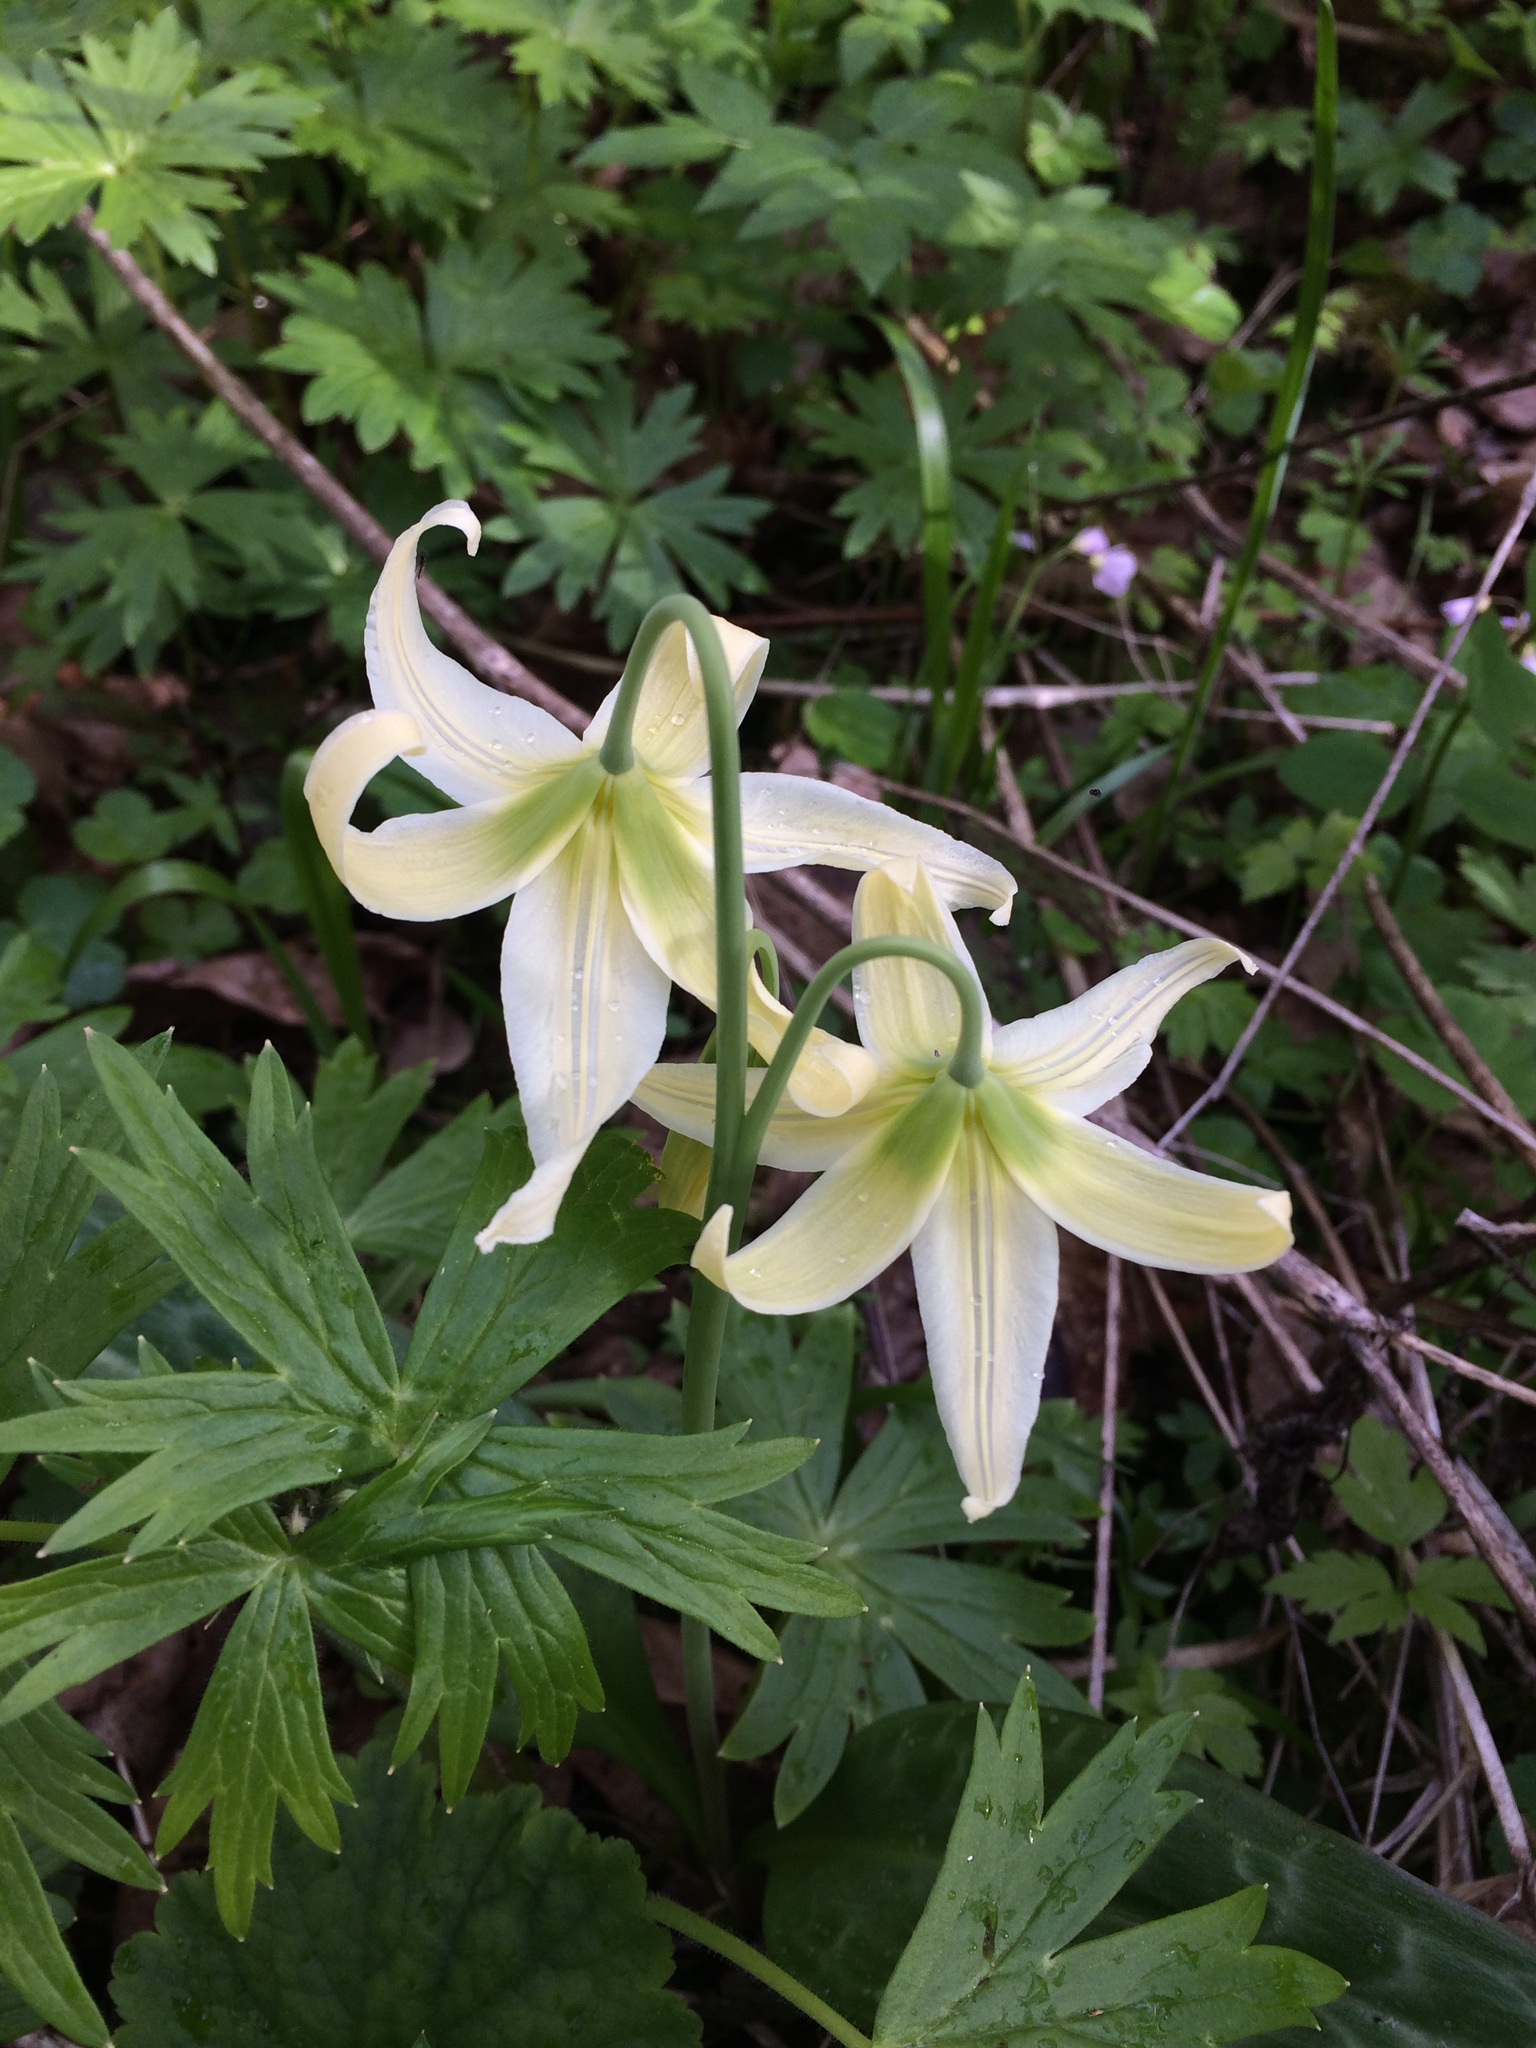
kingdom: Plantae
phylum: Tracheophyta
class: Liliopsida
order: Liliales
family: Liliaceae
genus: Erythronium
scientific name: Erythronium oregonum
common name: Giant adder's-tongue
